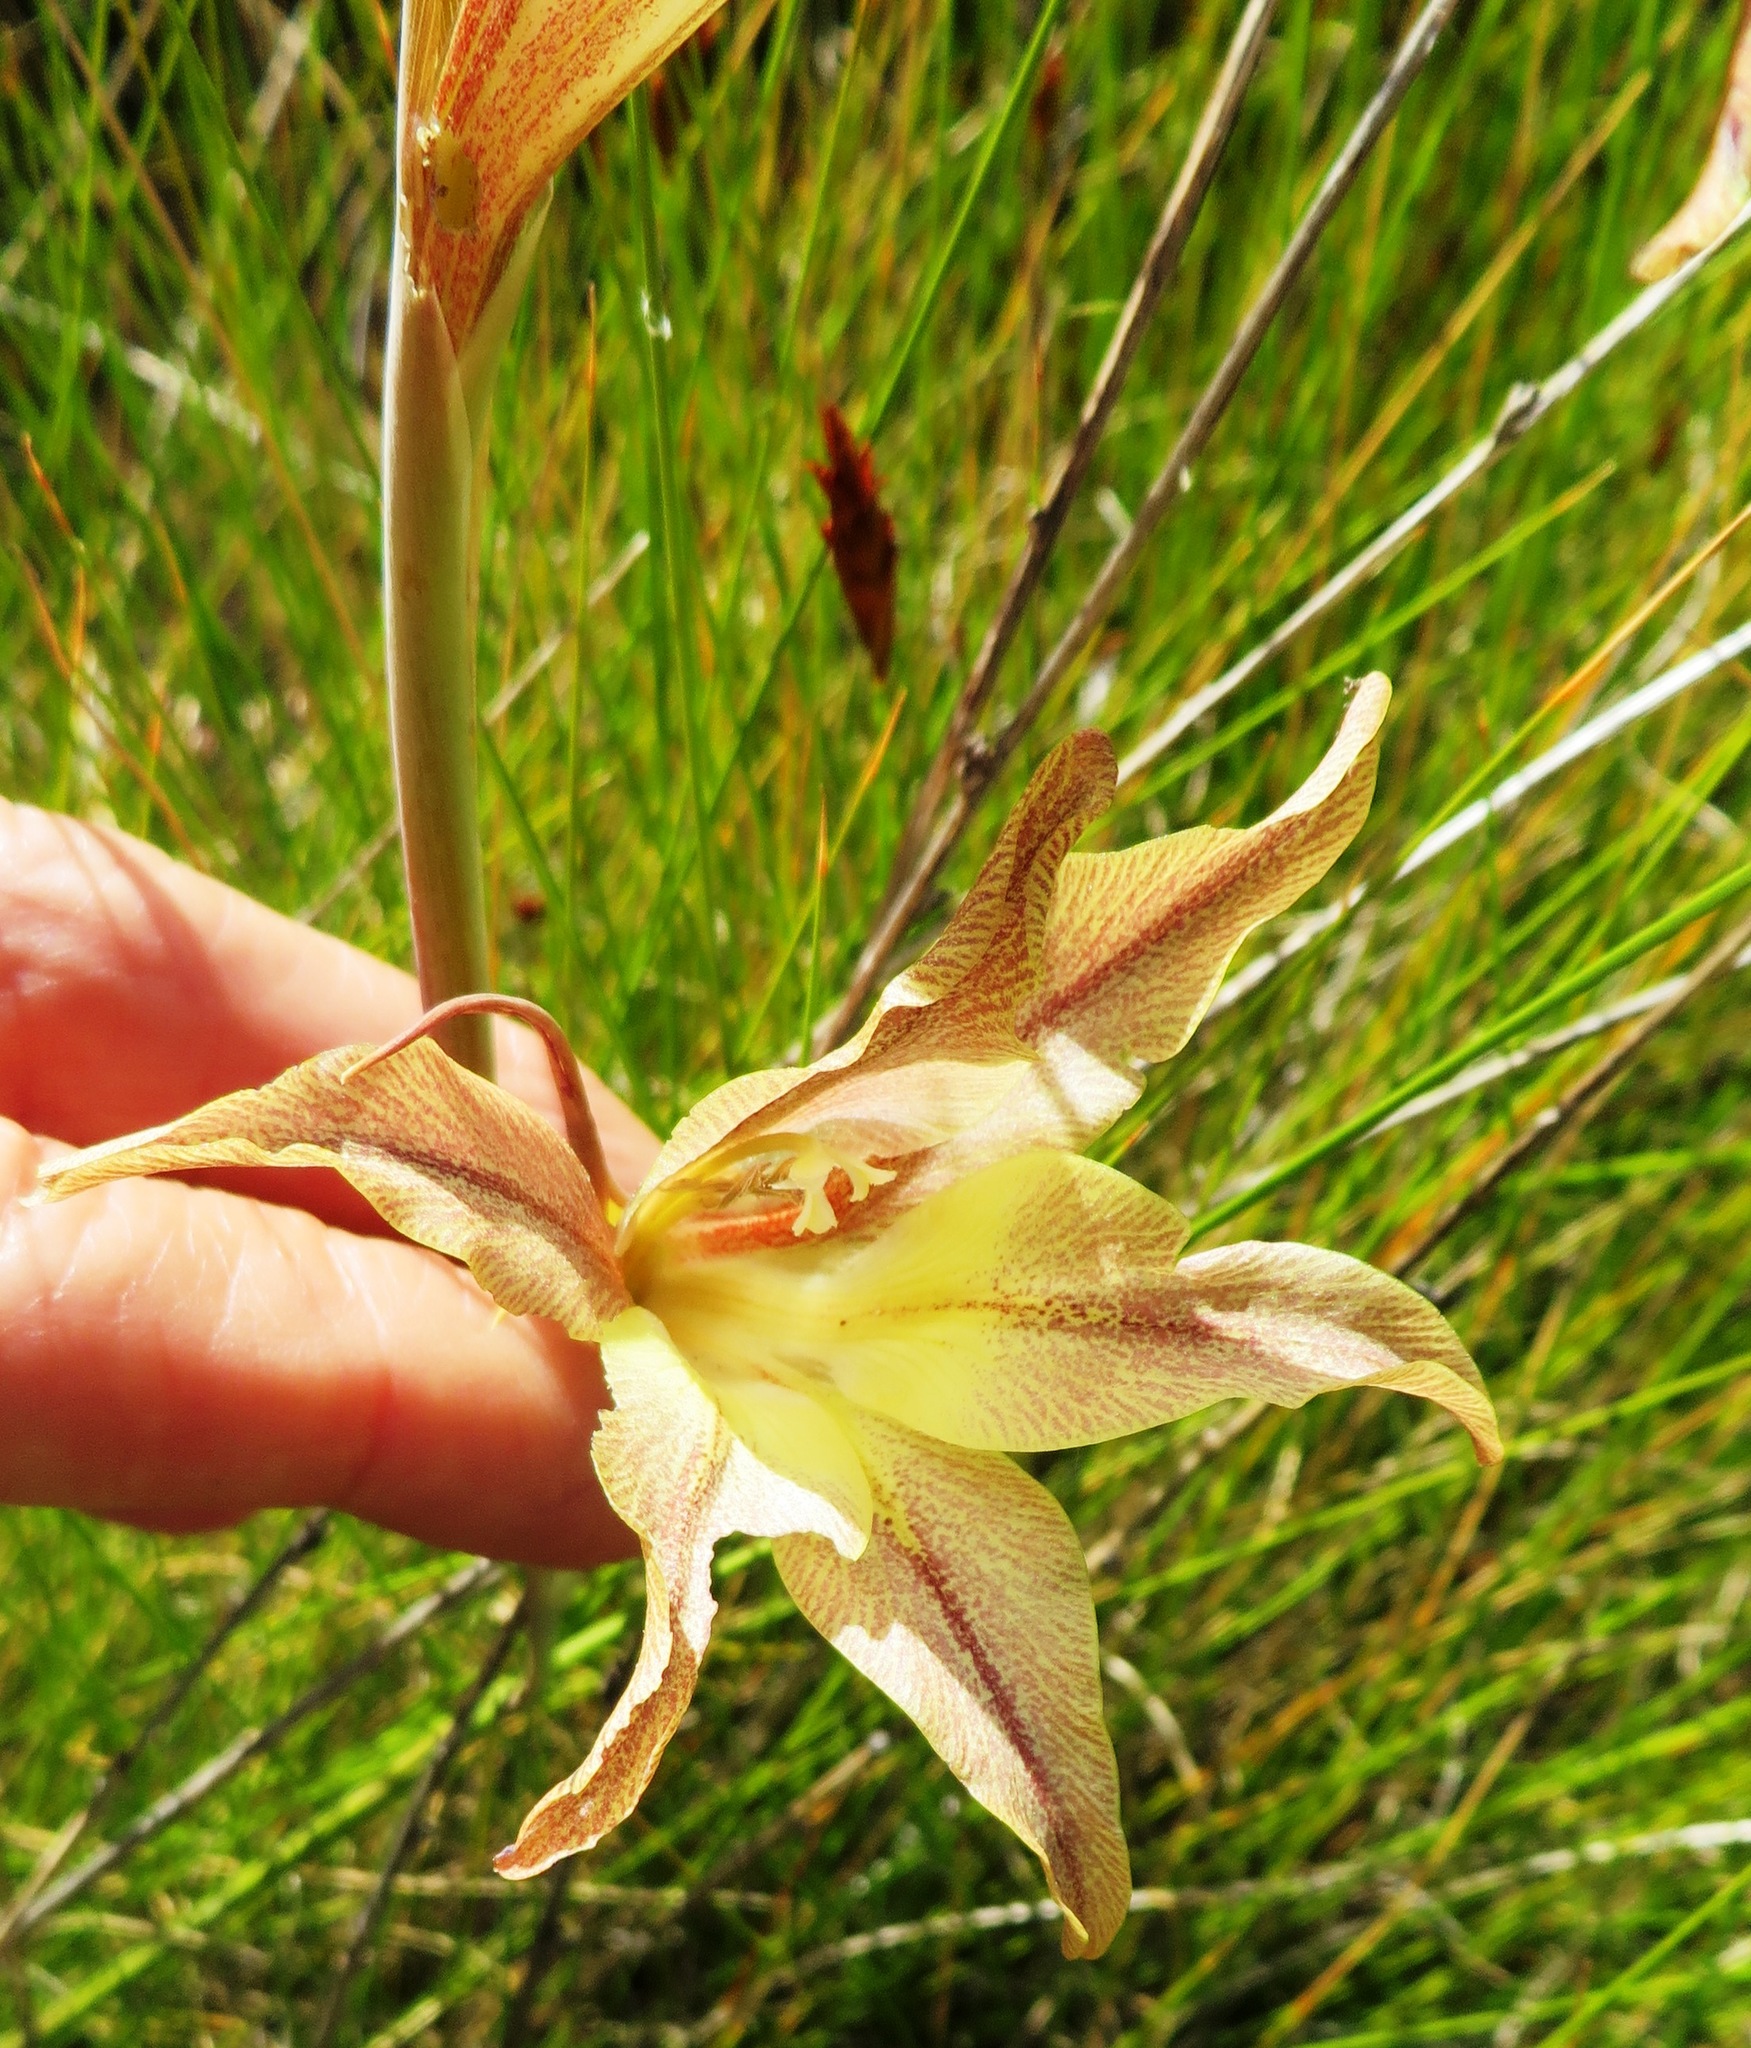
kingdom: Plantae
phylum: Tracheophyta
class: Liliopsida
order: Asparagales
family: Iridaceae
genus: Gladiolus
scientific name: Gladiolus liliaceus
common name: Large brown afrikaner
